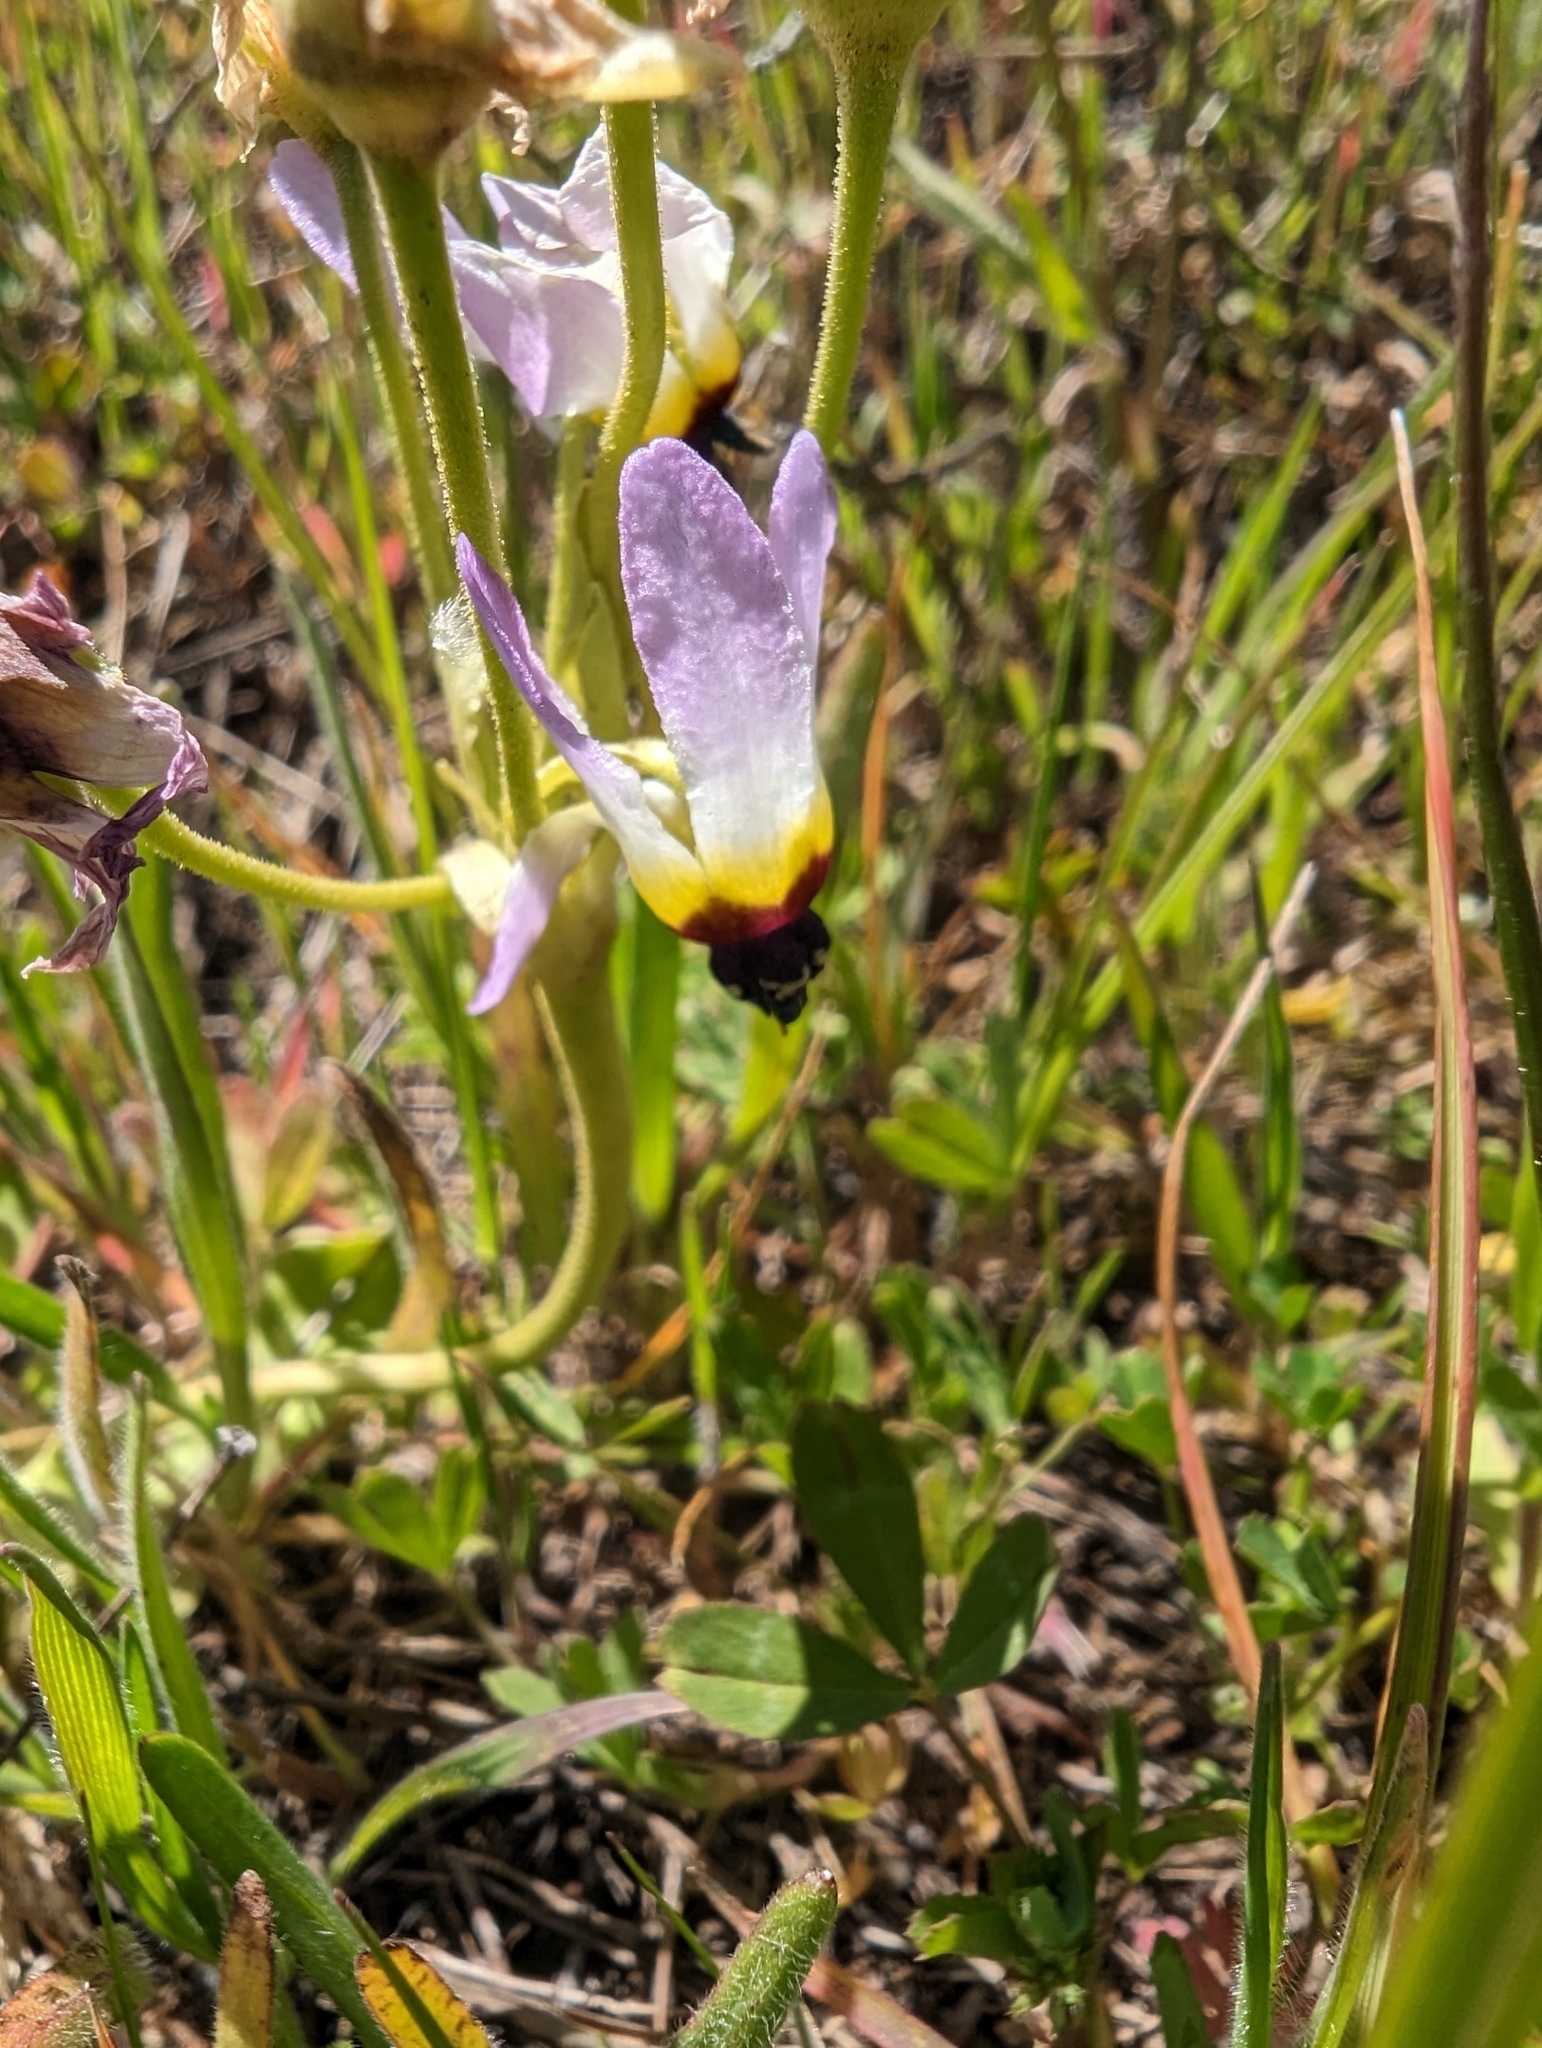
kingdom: Plantae
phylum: Tracheophyta
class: Magnoliopsida
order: Ericales
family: Primulaceae
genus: Dodecatheon
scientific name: Dodecatheon clevelandii
